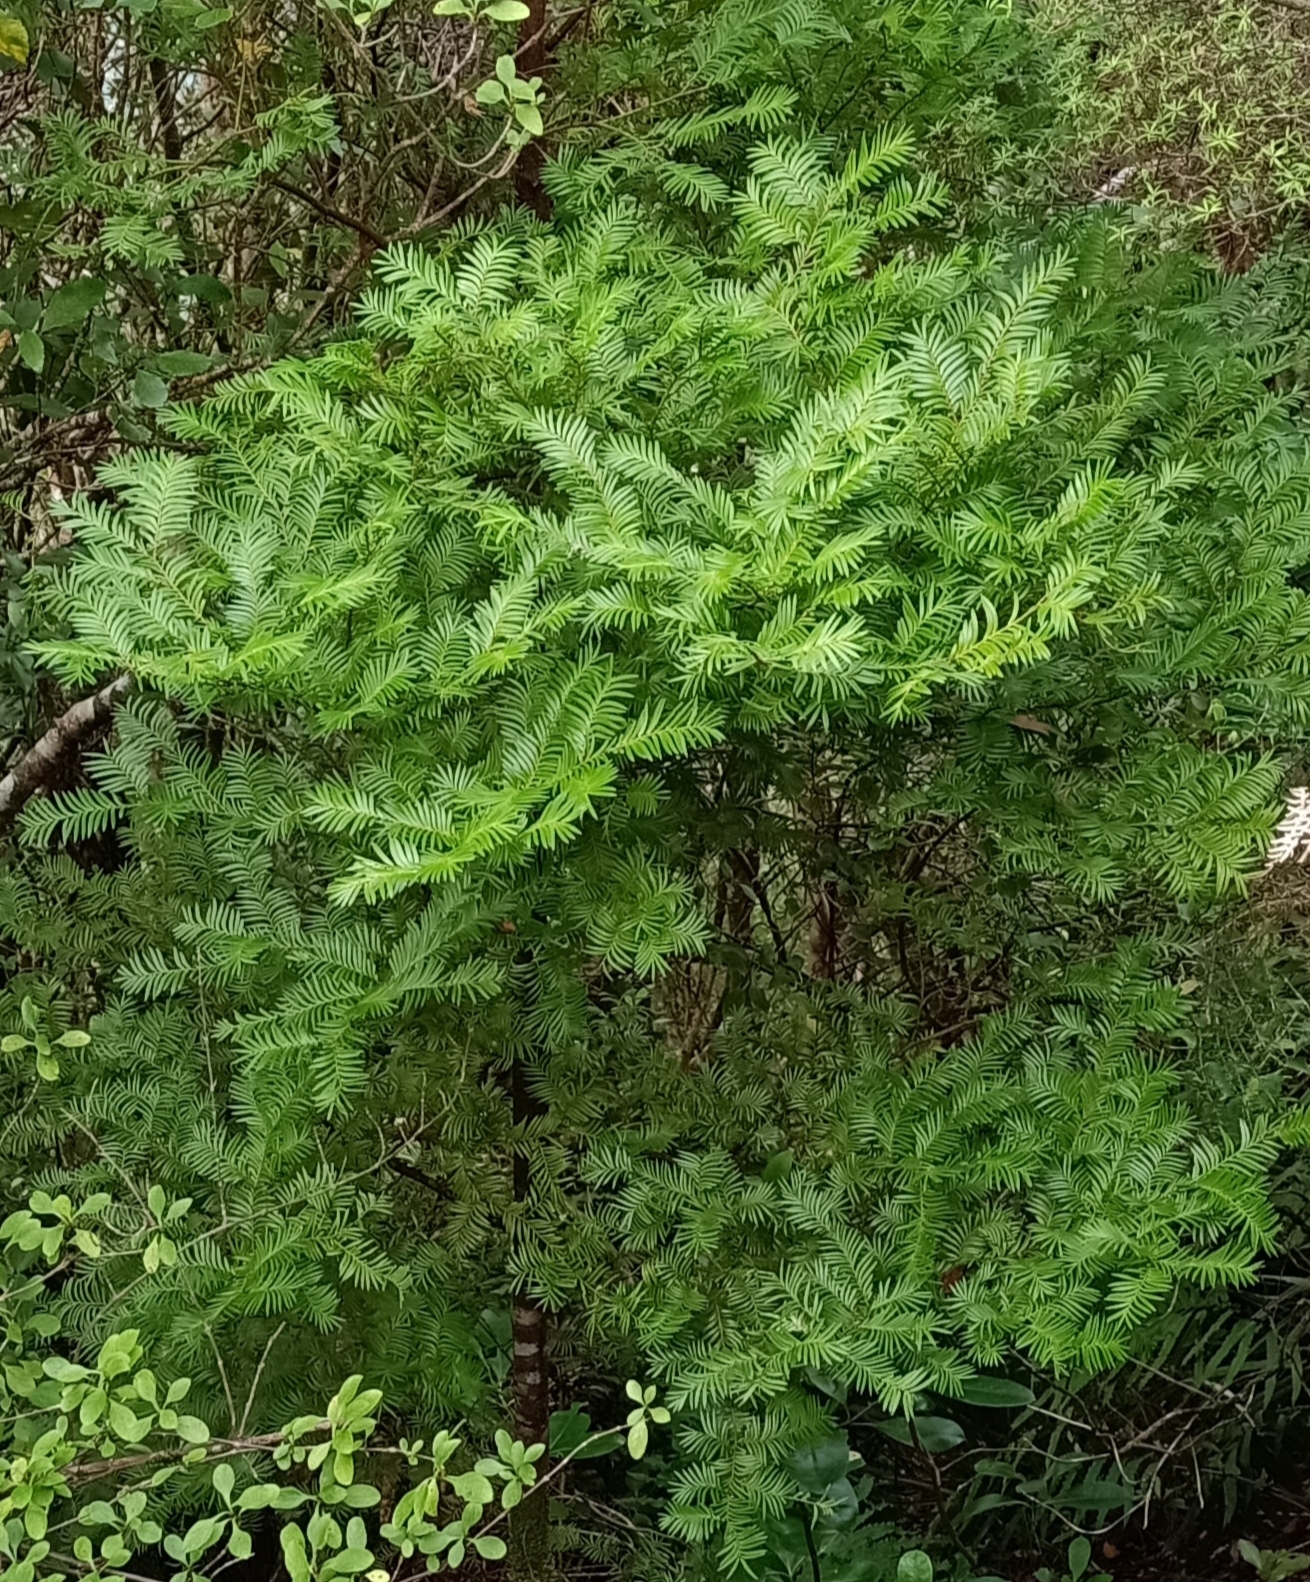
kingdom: Plantae
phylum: Tracheophyta
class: Pinopsida
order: Pinales
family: Podocarpaceae
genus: Prumnopitys
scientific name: Prumnopitys ferruginea
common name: Brown pine
